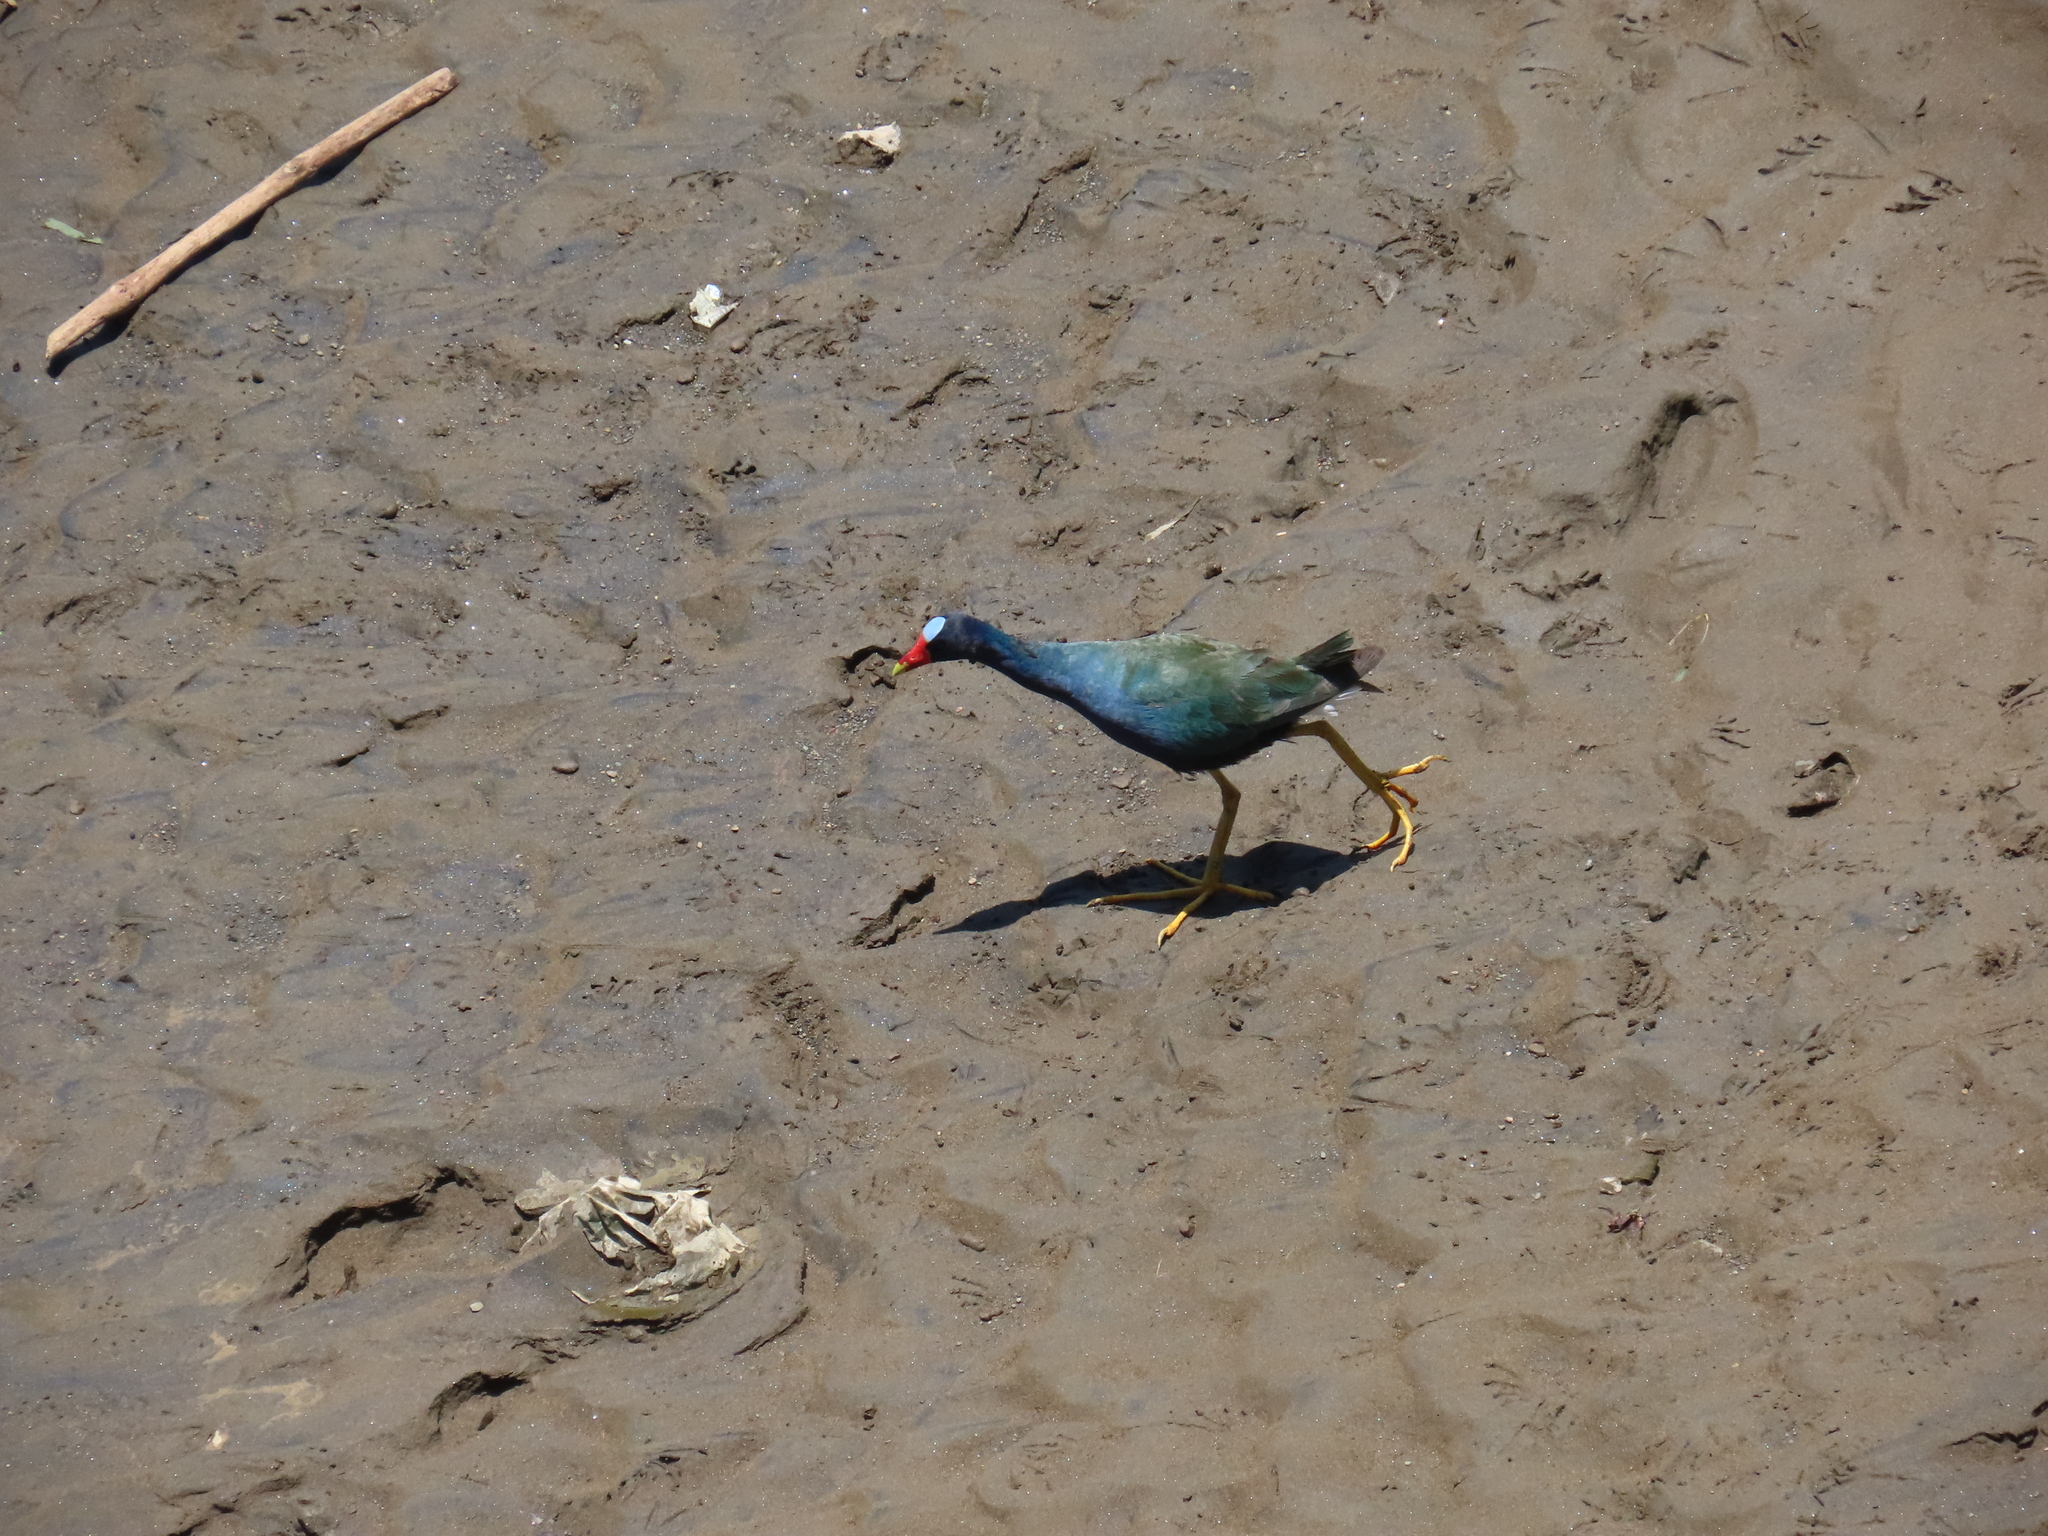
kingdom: Animalia
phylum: Chordata
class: Aves
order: Gruiformes
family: Rallidae
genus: Porphyrio
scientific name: Porphyrio martinica
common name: Purple gallinule
